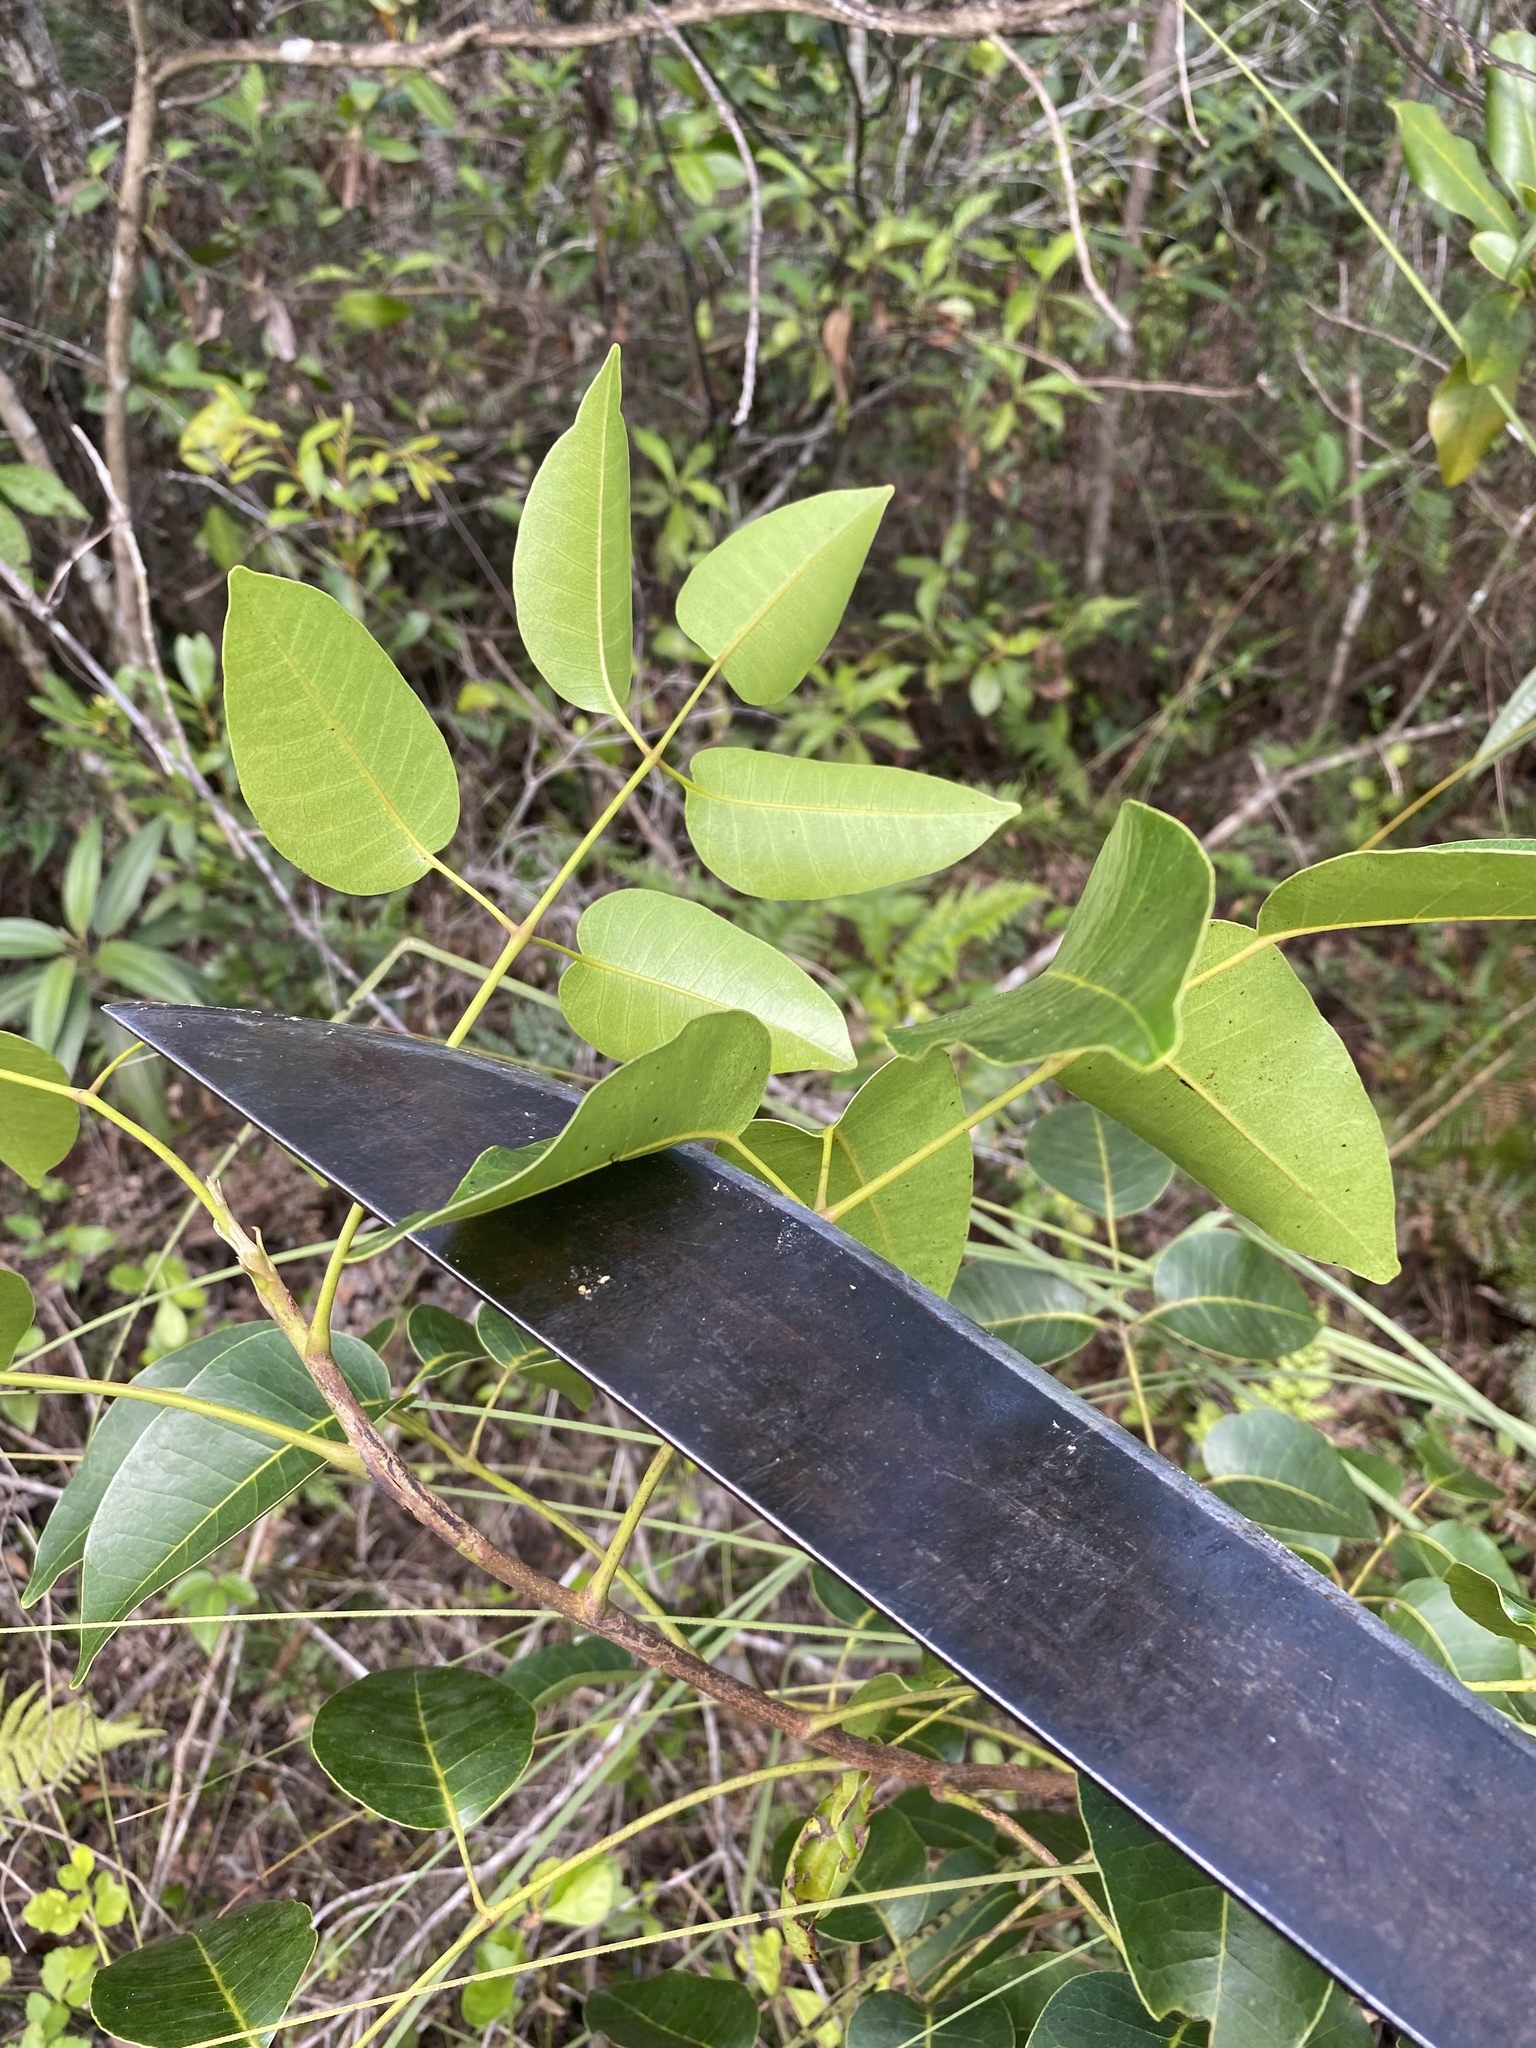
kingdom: Plantae
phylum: Tracheophyta
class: Magnoliopsida
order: Sapindales
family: Anacardiaceae
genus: Metopium
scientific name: Metopium toxiferum
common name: Florida poisontree
